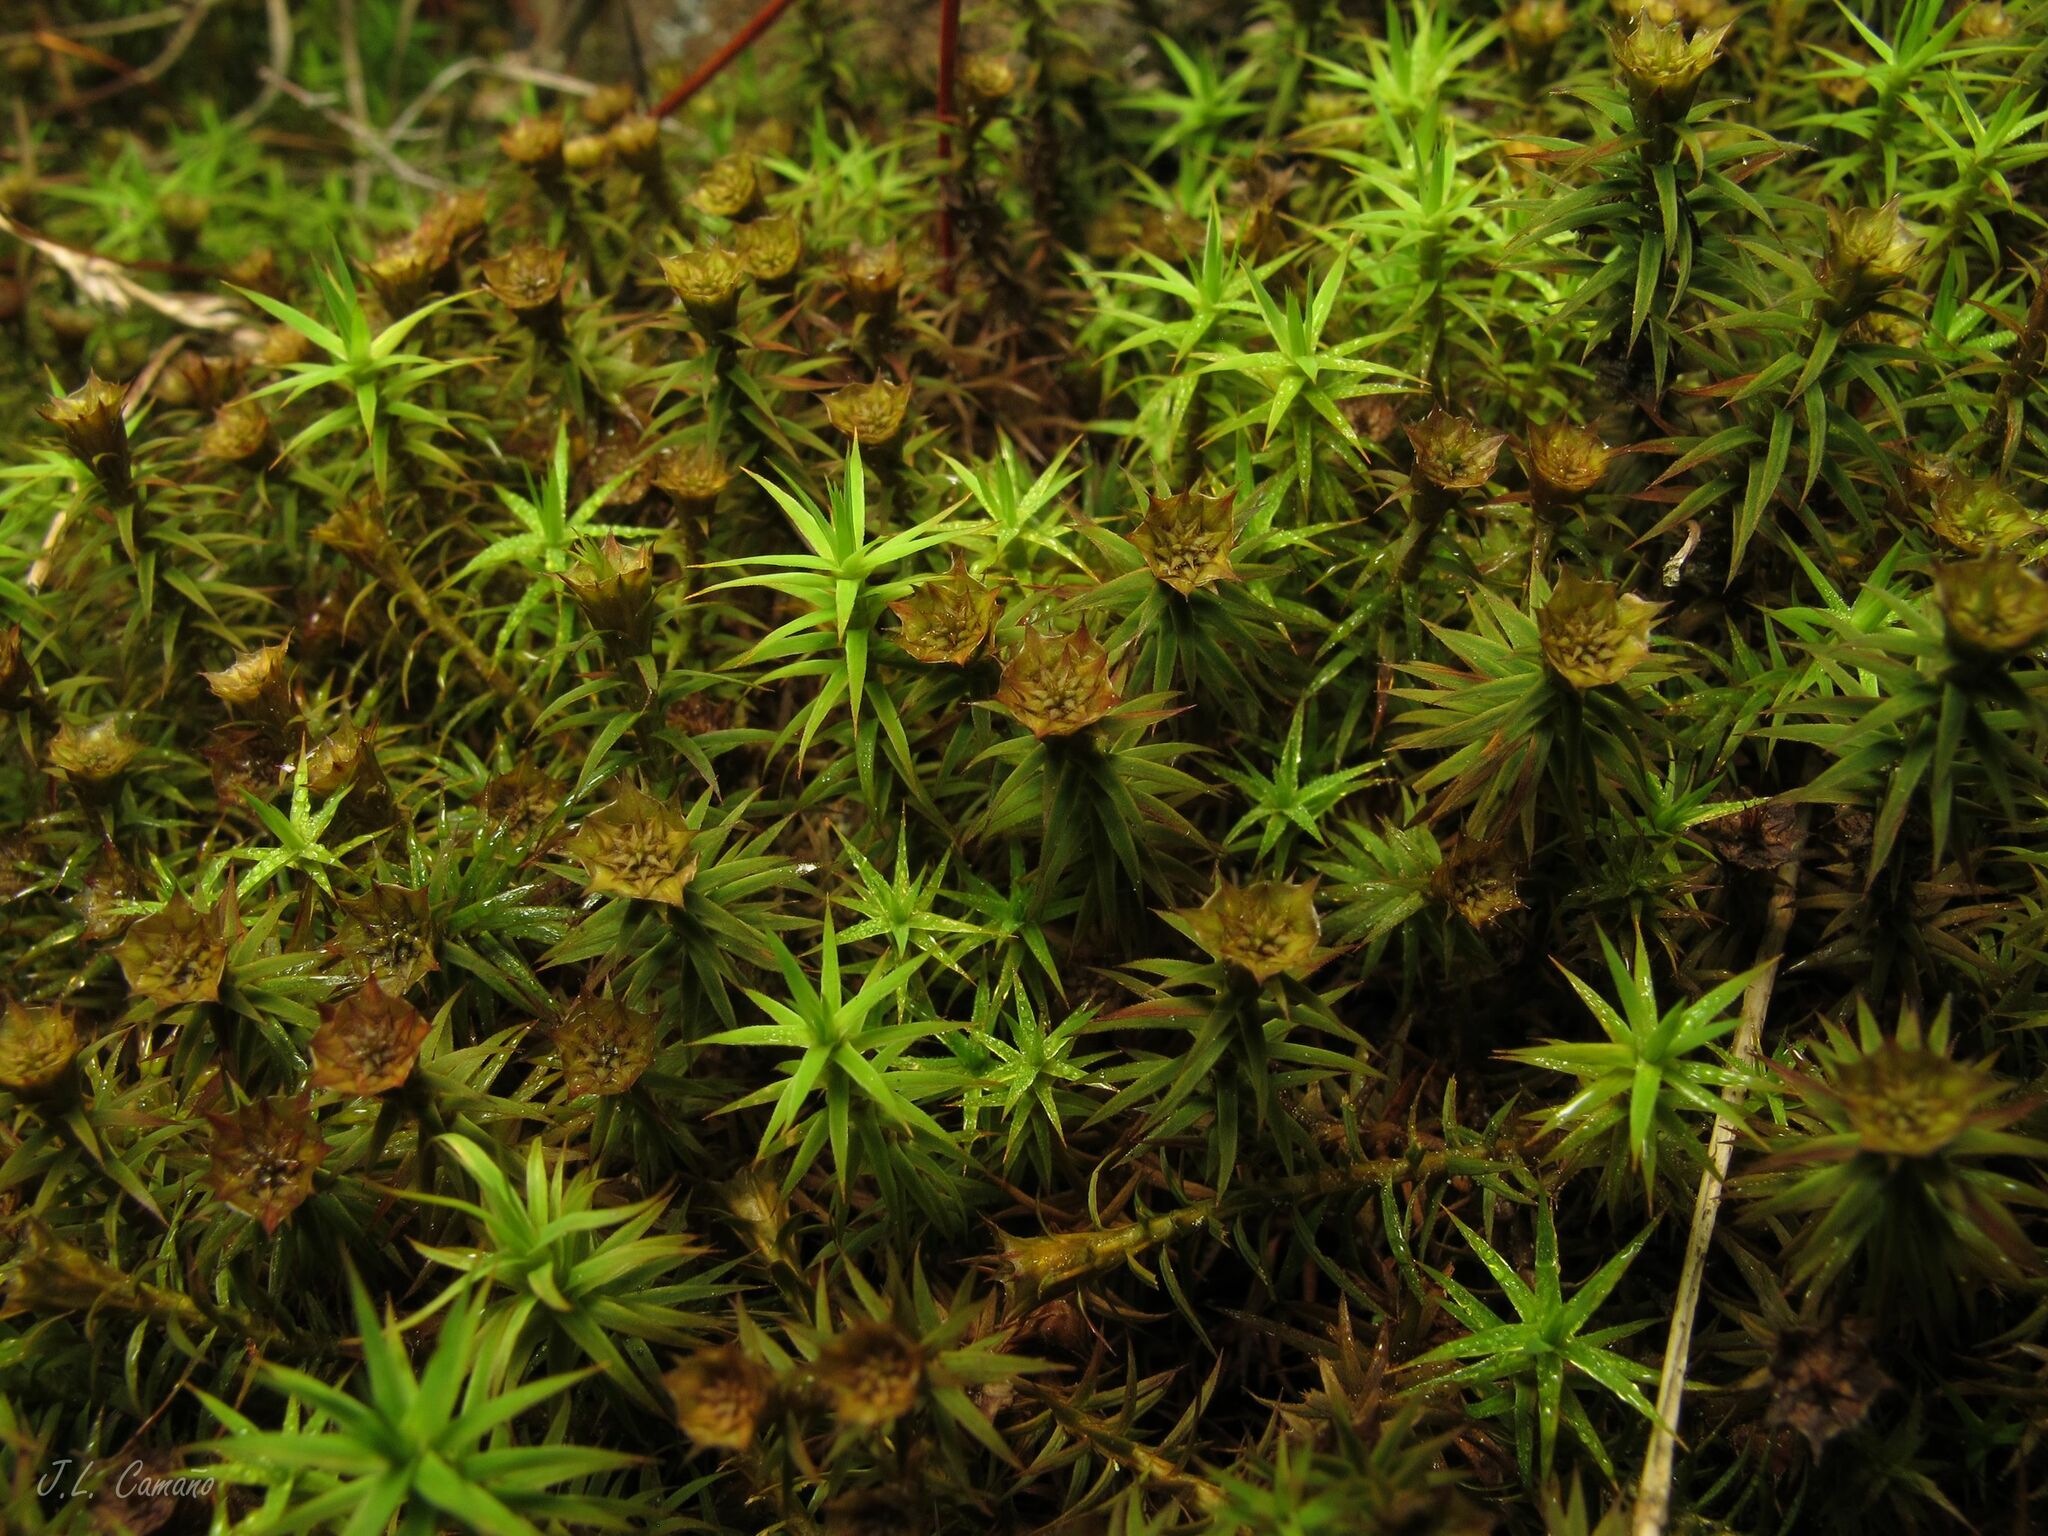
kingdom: Plantae
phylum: Bryophyta
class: Polytrichopsida
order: Polytrichales
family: Polytrichaceae
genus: Polytrichum
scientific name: Polytrichum formosum
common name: Bank haircap moss
